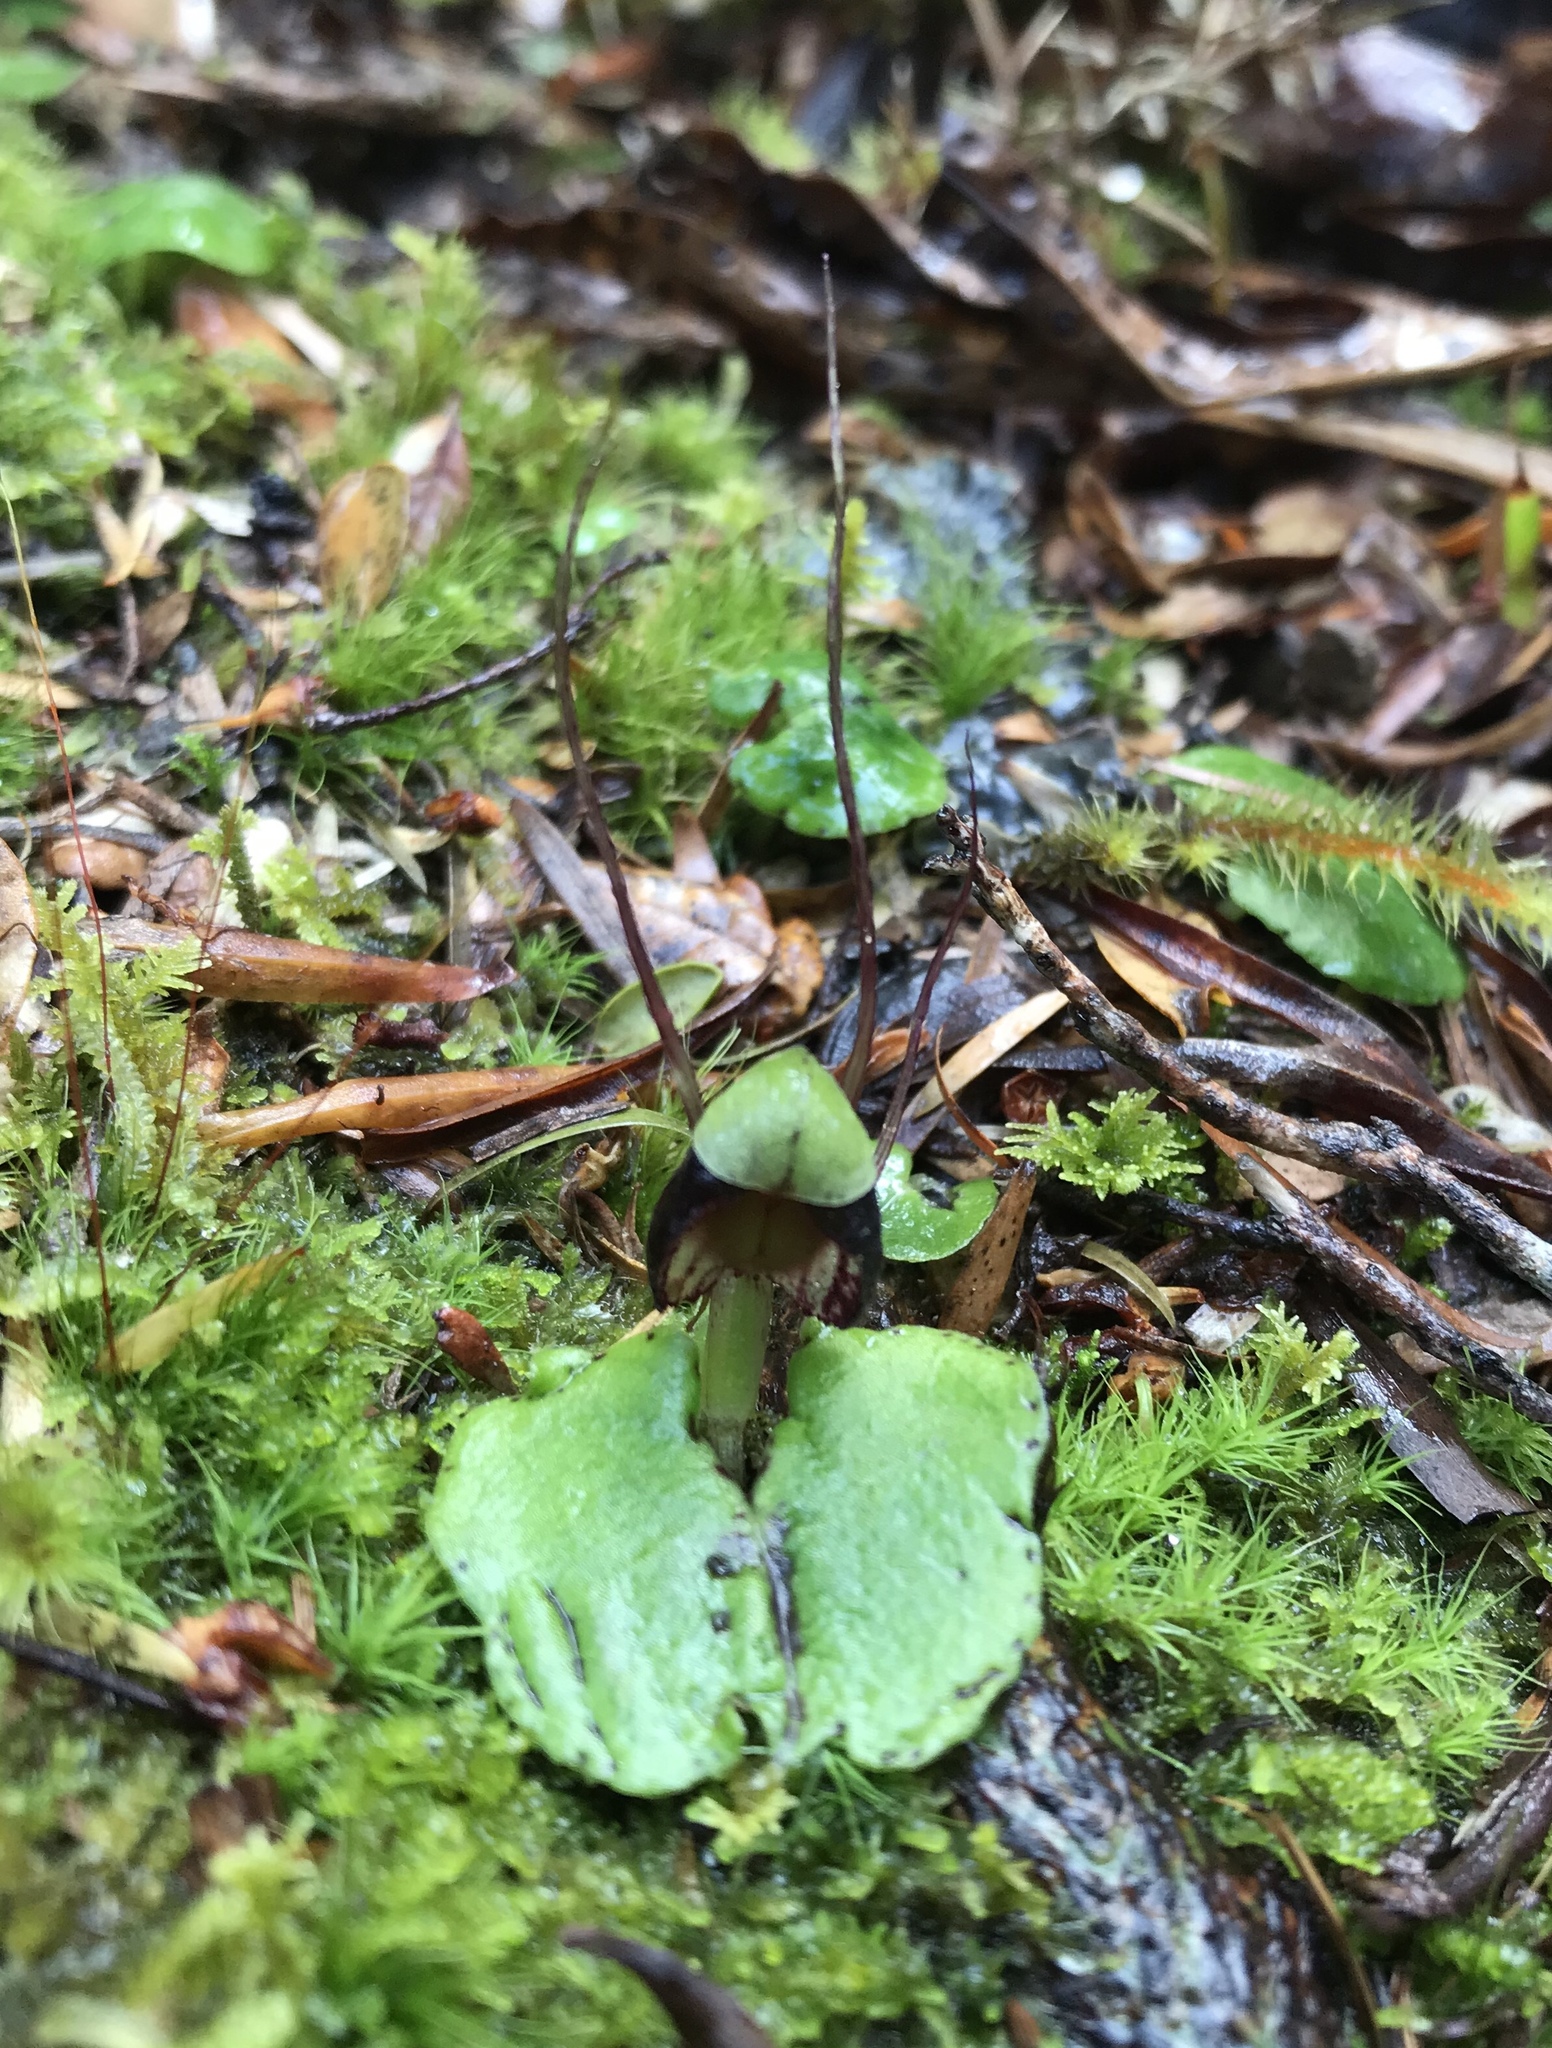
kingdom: Plantae
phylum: Tracheophyta
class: Liliopsida
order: Asparagales
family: Orchidaceae
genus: Corybas
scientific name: Corybas vitreus
